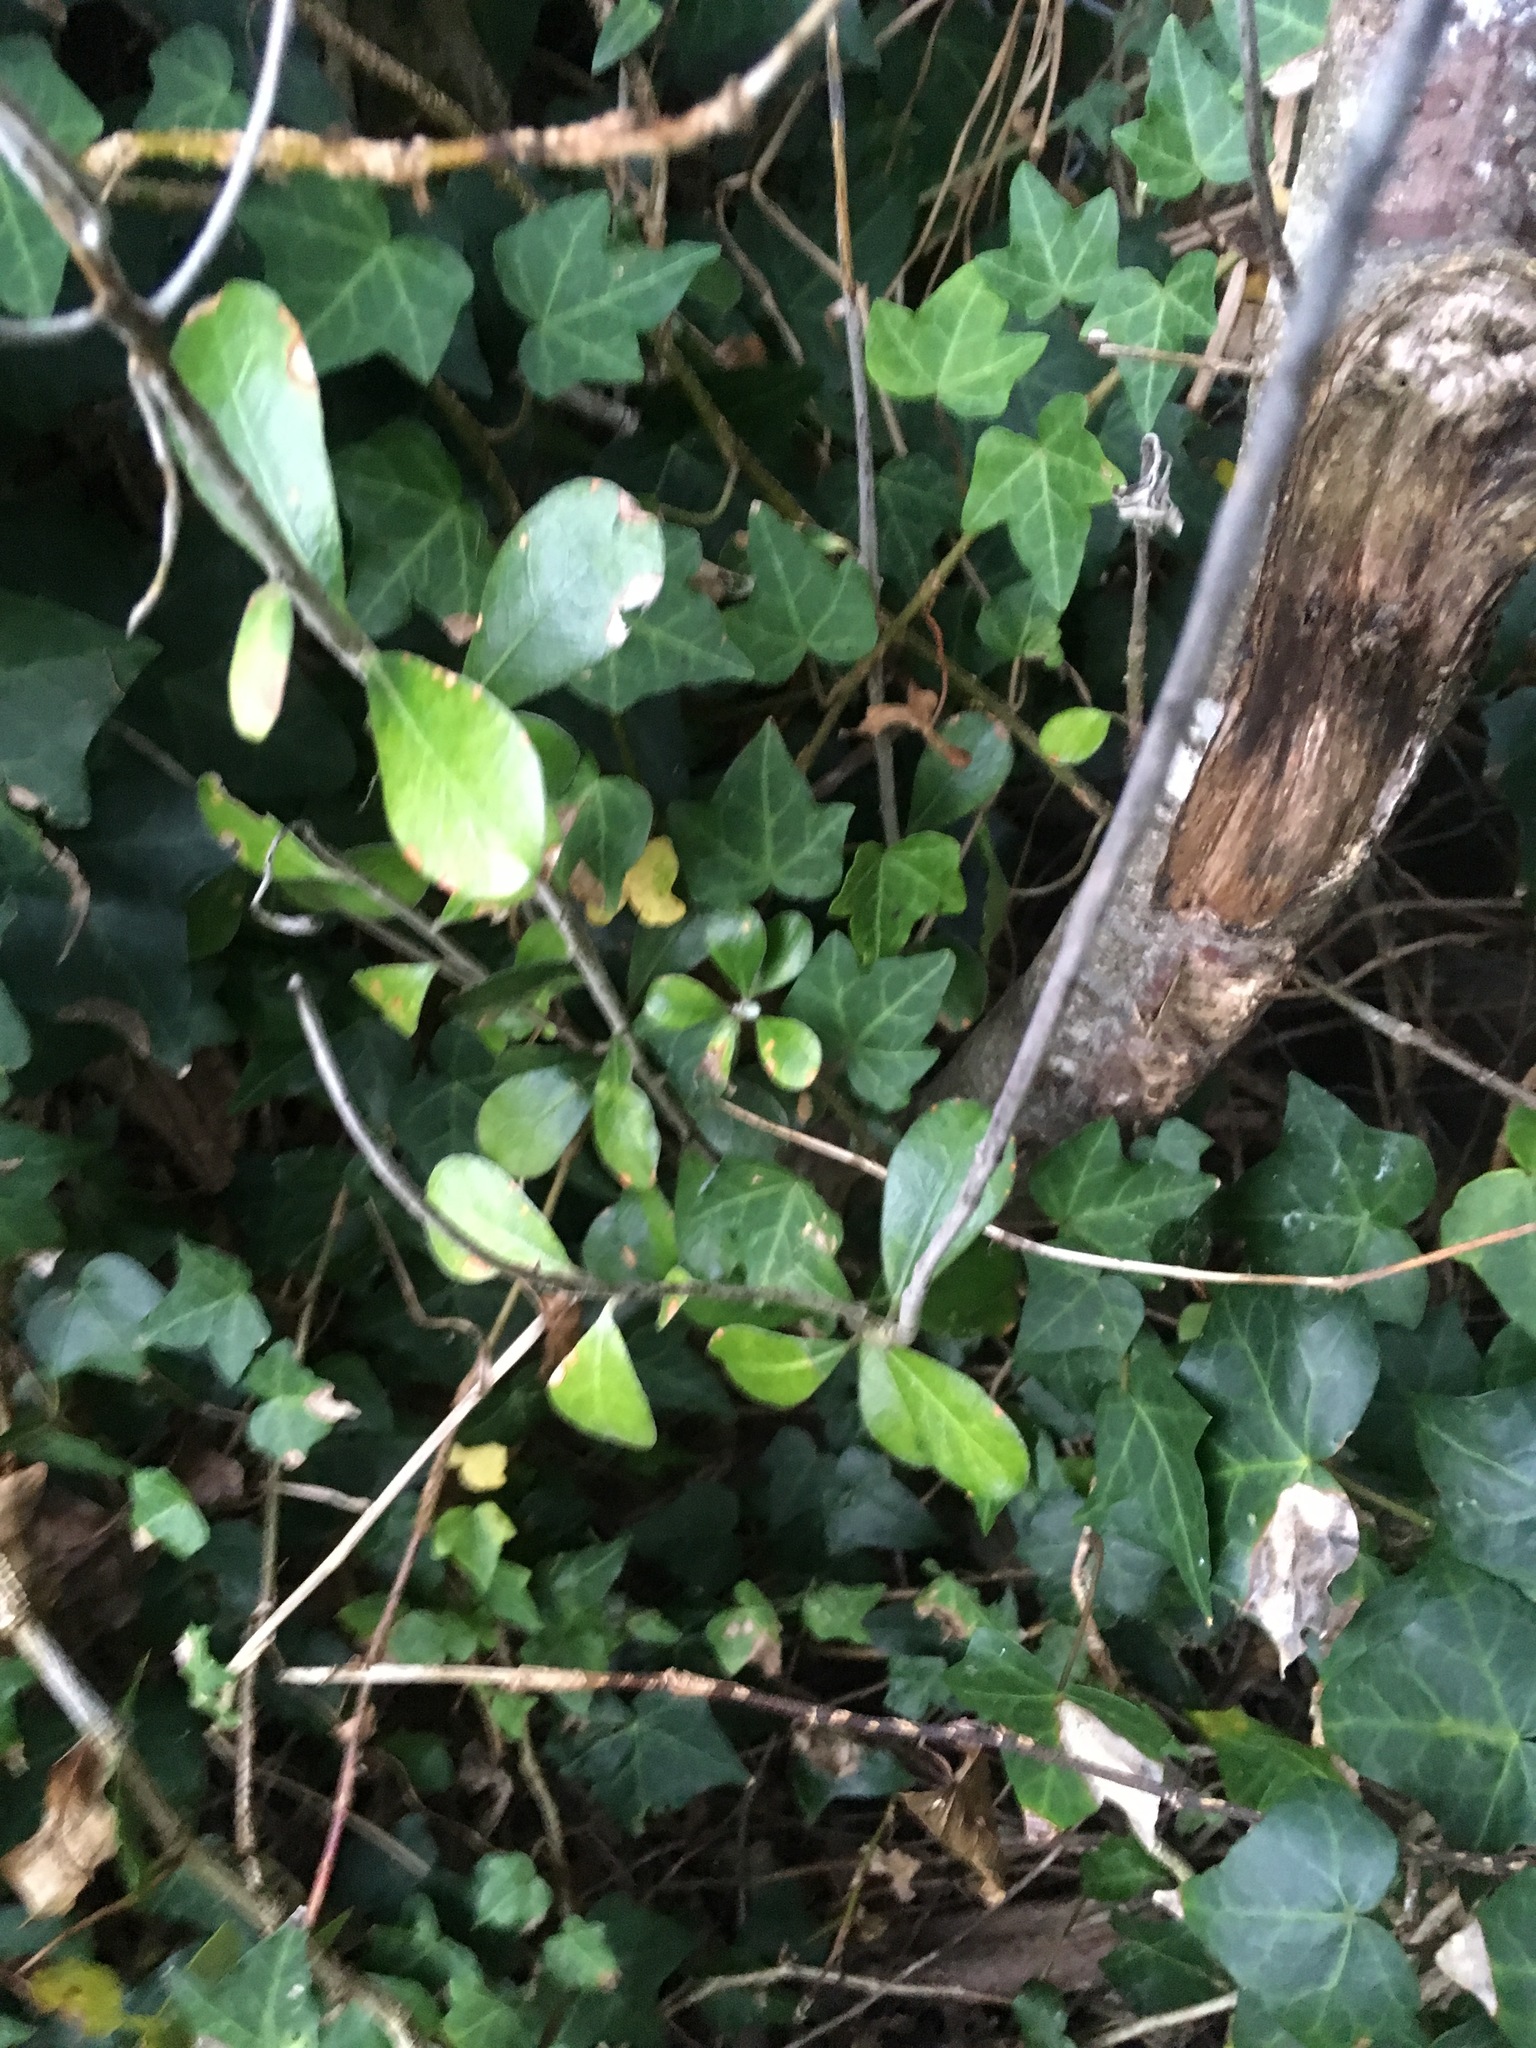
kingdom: Plantae
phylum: Tracheophyta
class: Magnoliopsida
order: Apiales
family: Pittosporaceae
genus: Pittosporum
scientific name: Pittosporum crassifolium
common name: Karo
